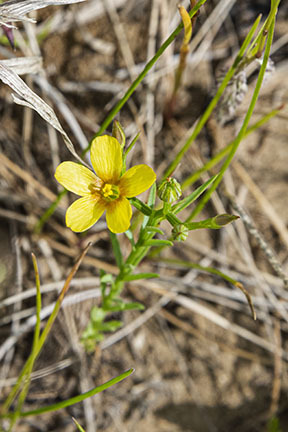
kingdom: Plantae
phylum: Tracheophyta
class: Magnoliopsida
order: Malpighiales
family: Linaceae
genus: Linum
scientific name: Linum compactum
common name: Wyoming flax
